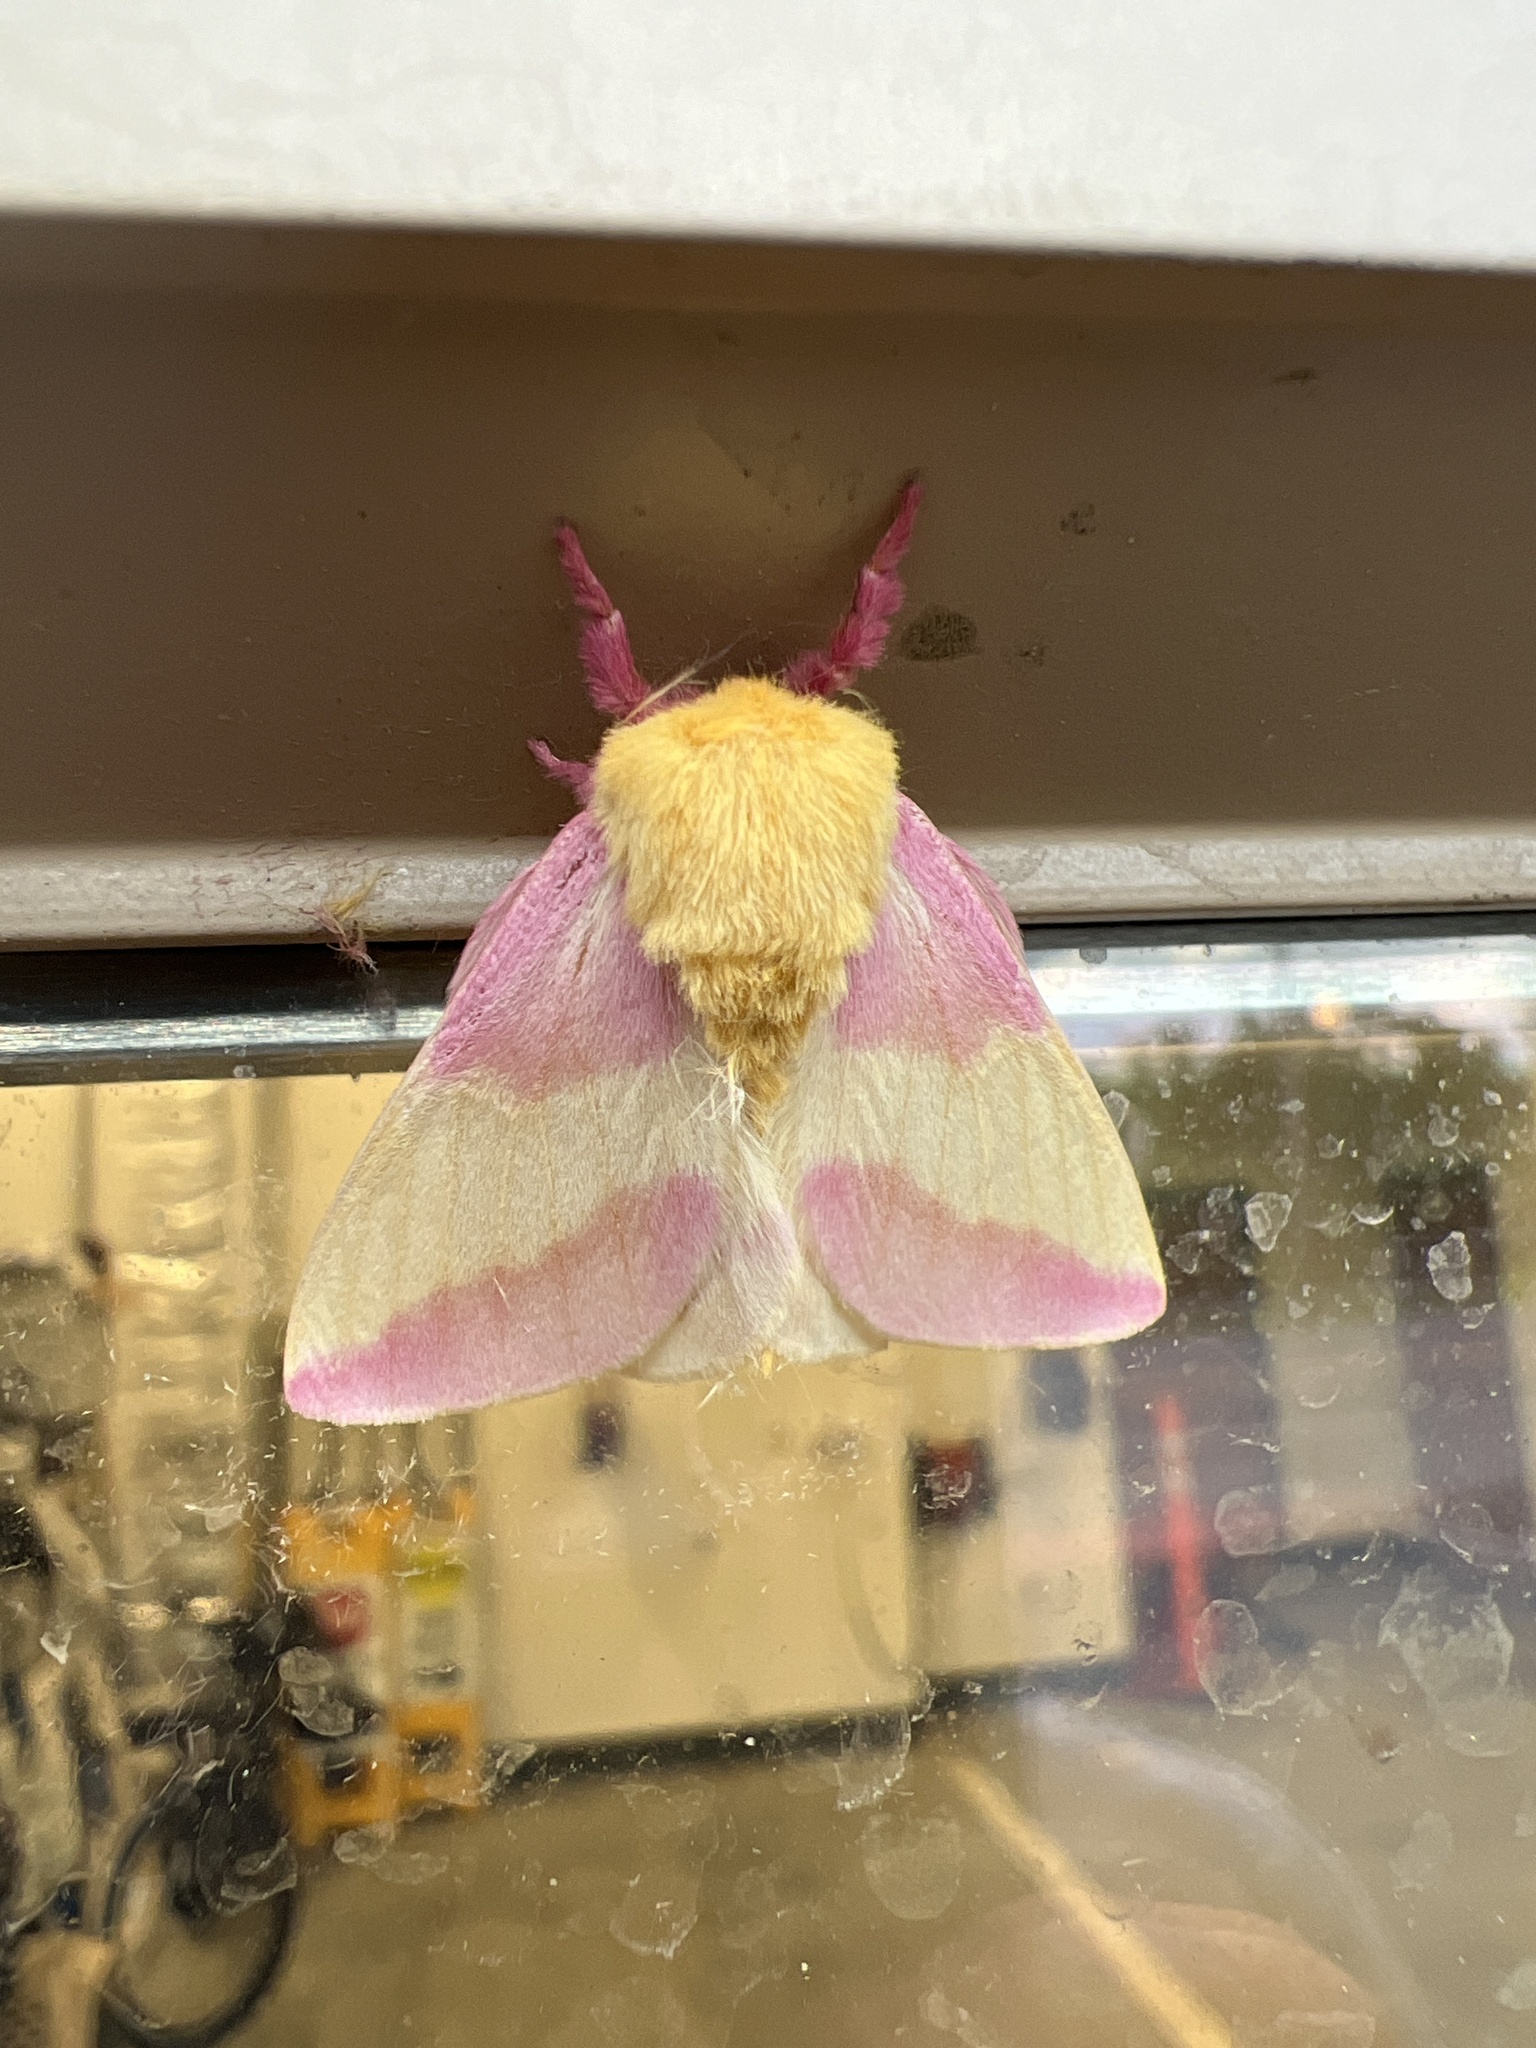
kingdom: Animalia
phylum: Arthropoda
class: Insecta
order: Lepidoptera
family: Saturniidae
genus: Dryocampa
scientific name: Dryocampa rubicunda
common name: Rosy maple moth
